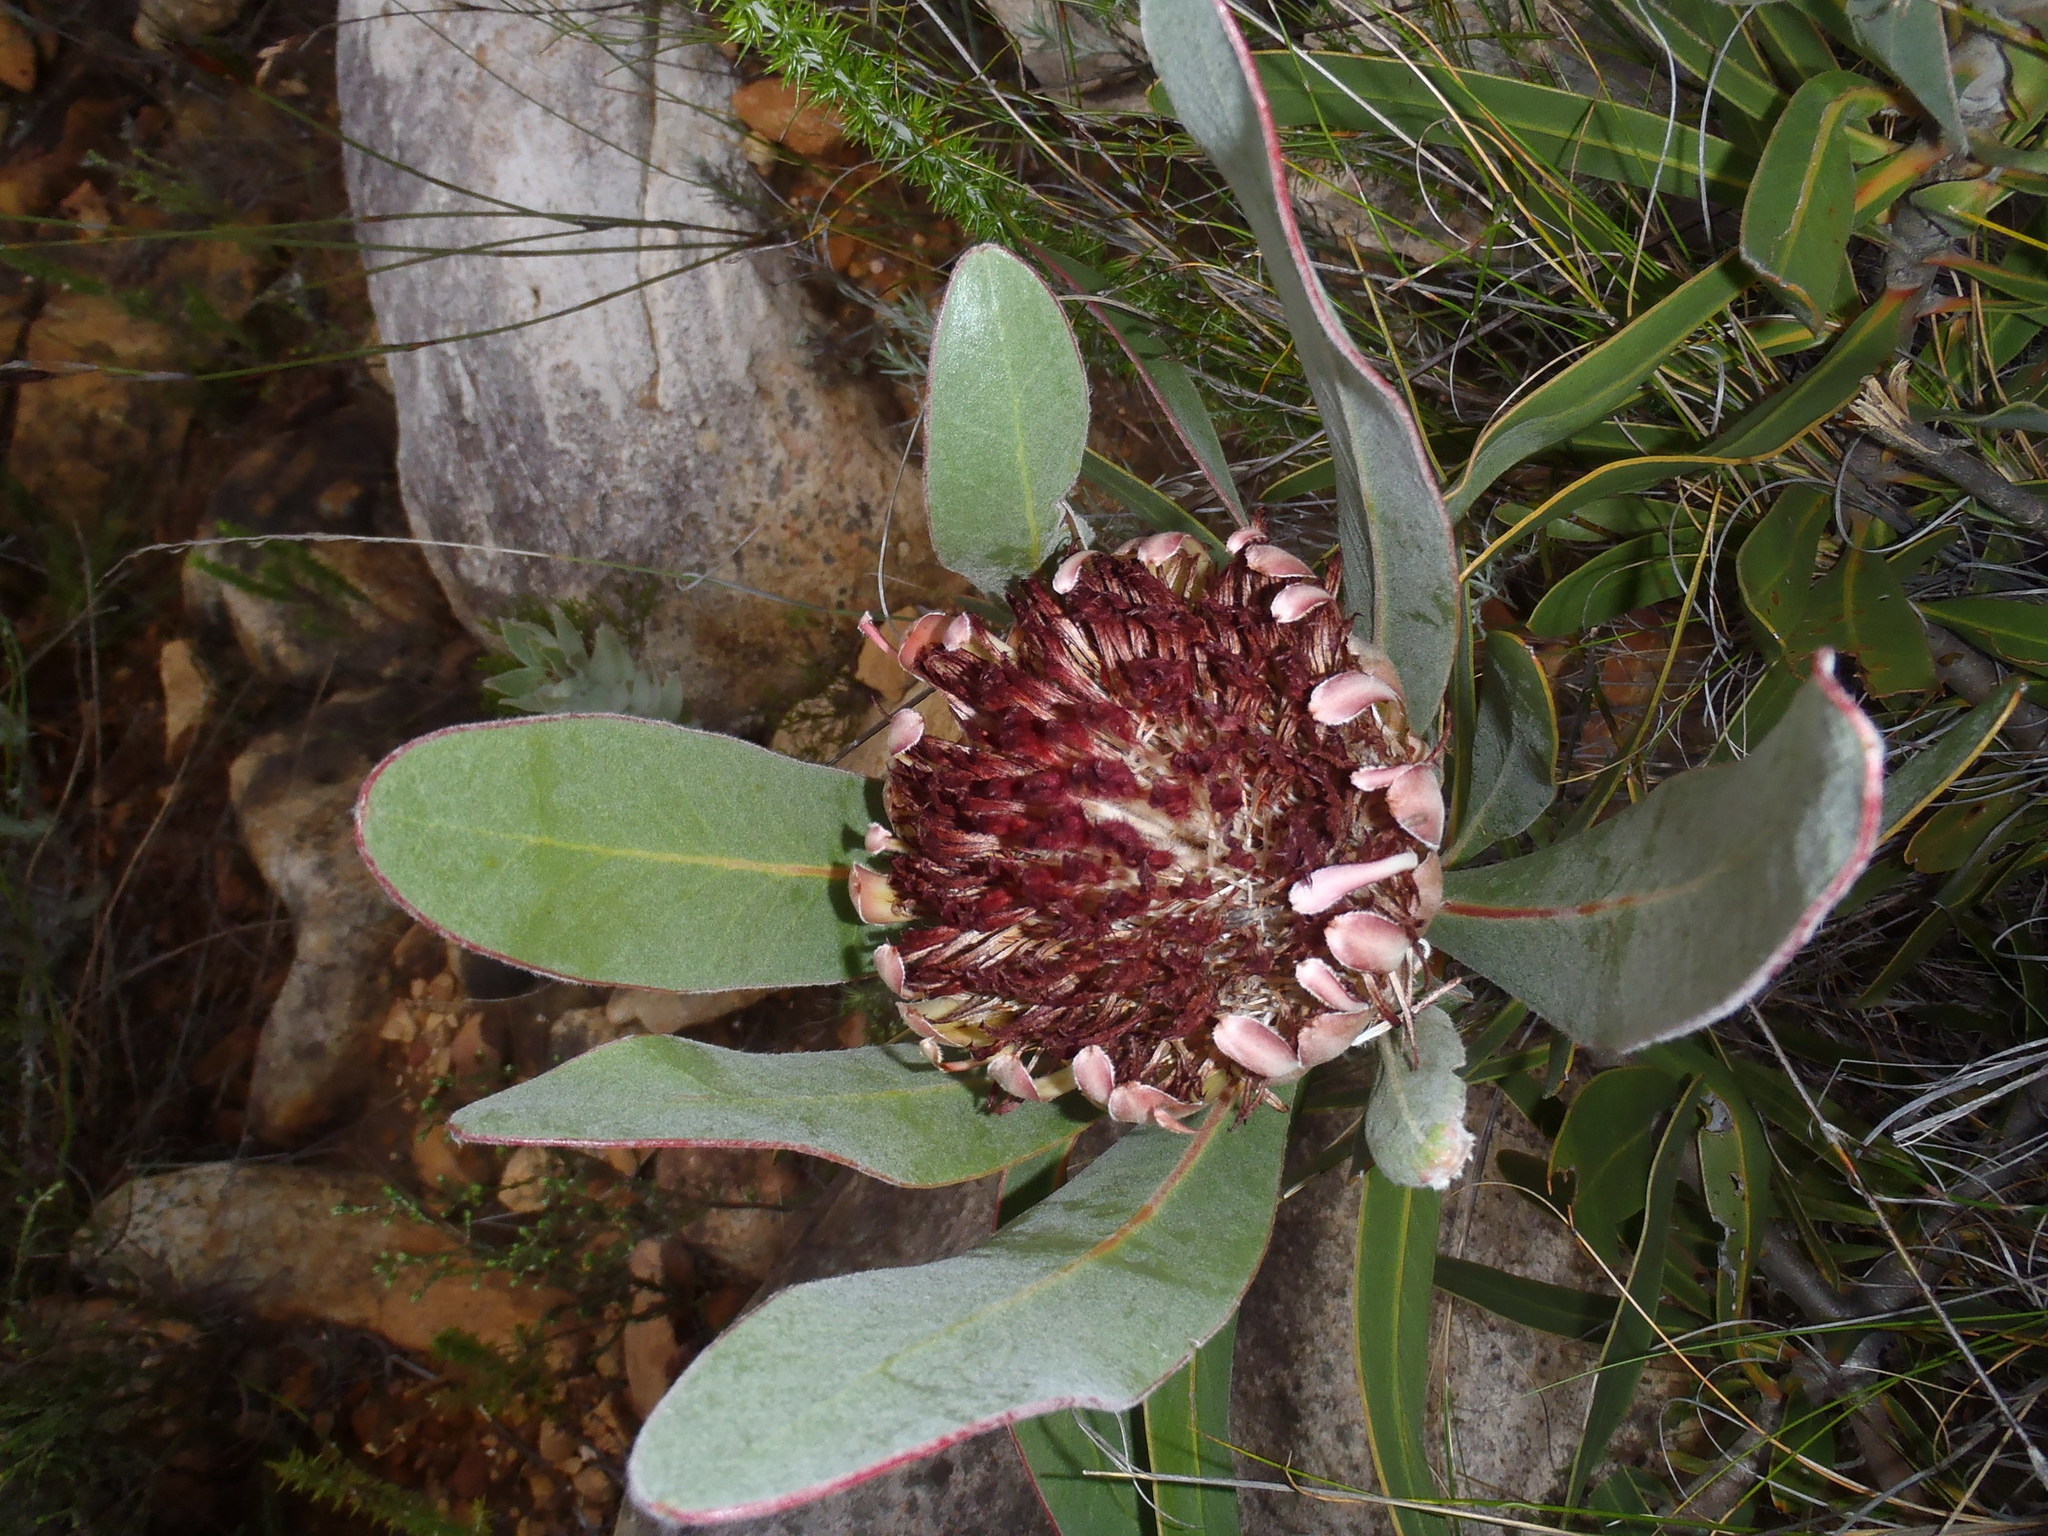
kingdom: Plantae
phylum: Tracheophyta
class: Magnoliopsida
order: Proteales
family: Proteaceae
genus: Protea
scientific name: Protea lorifolia
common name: Strap-leaved protea
